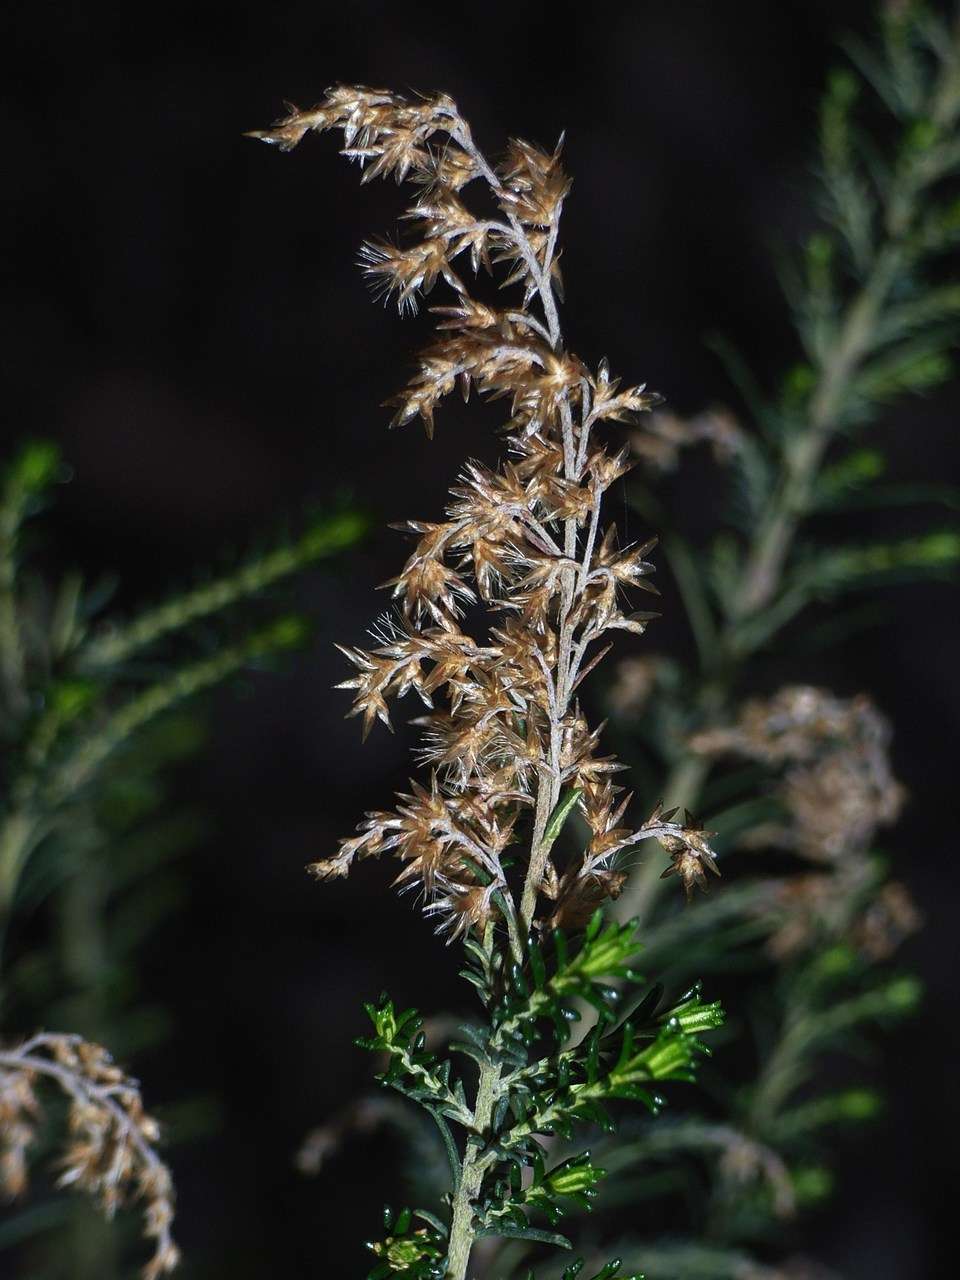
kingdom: Plantae
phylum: Tracheophyta
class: Magnoliopsida
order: Asterales
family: Asteraceae
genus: Cassinia
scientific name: Cassinia sifton
